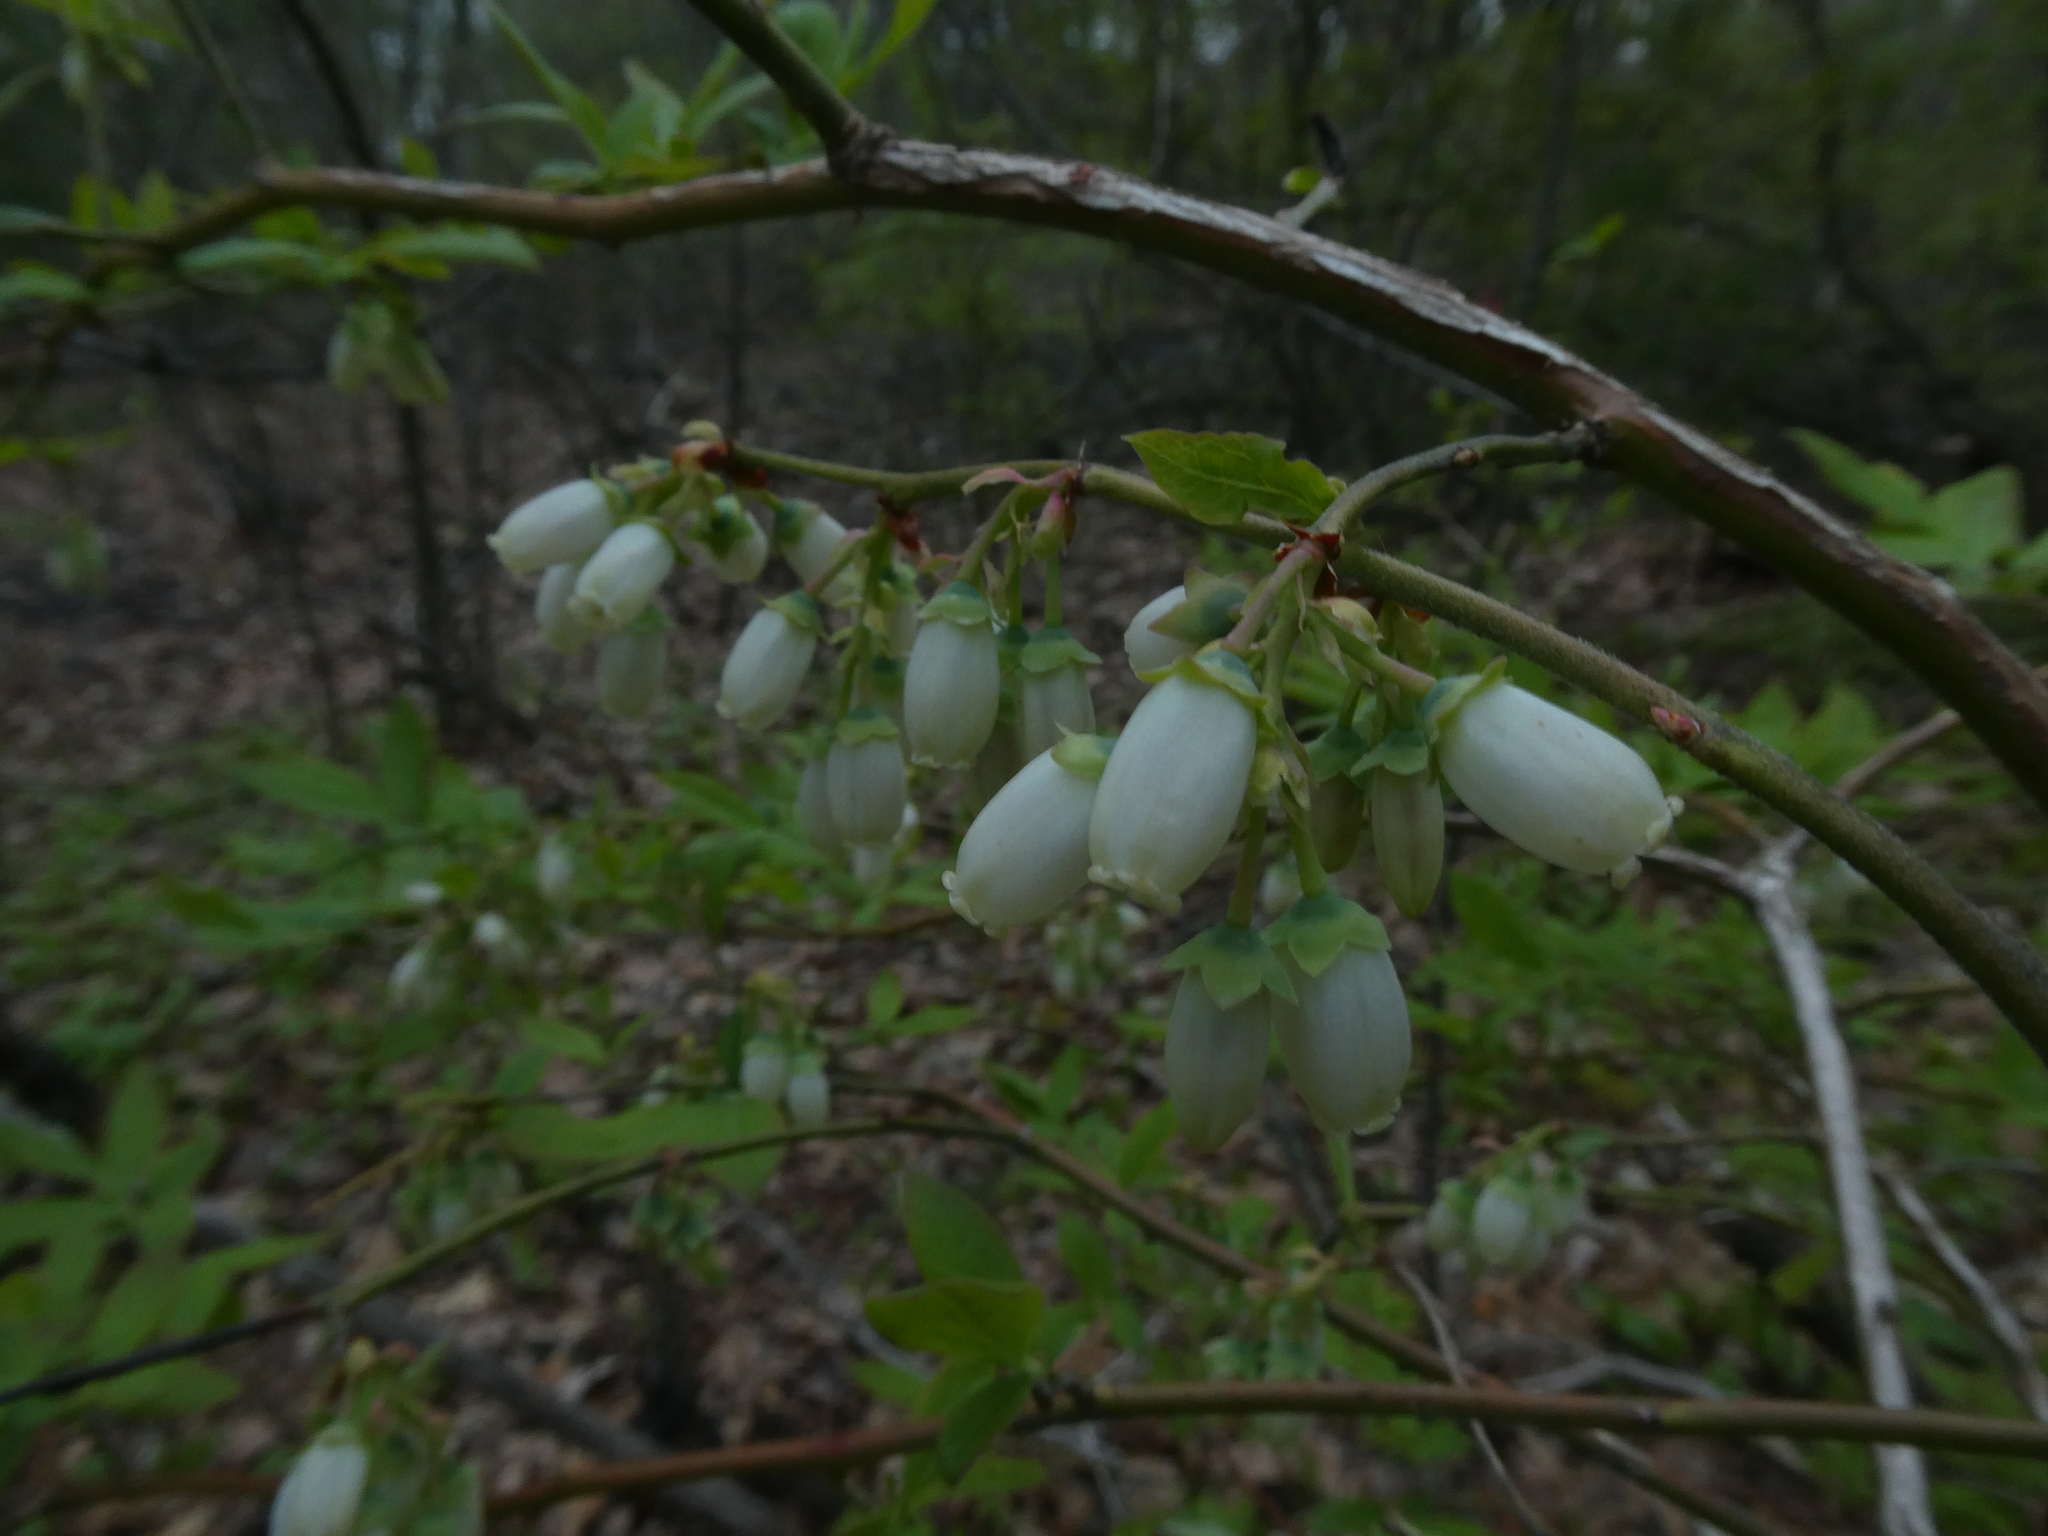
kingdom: Plantae
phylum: Tracheophyta
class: Magnoliopsida
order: Ericales
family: Ericaceae
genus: Vaccinium
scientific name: Vaccinium corymbosum
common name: Blueberry
